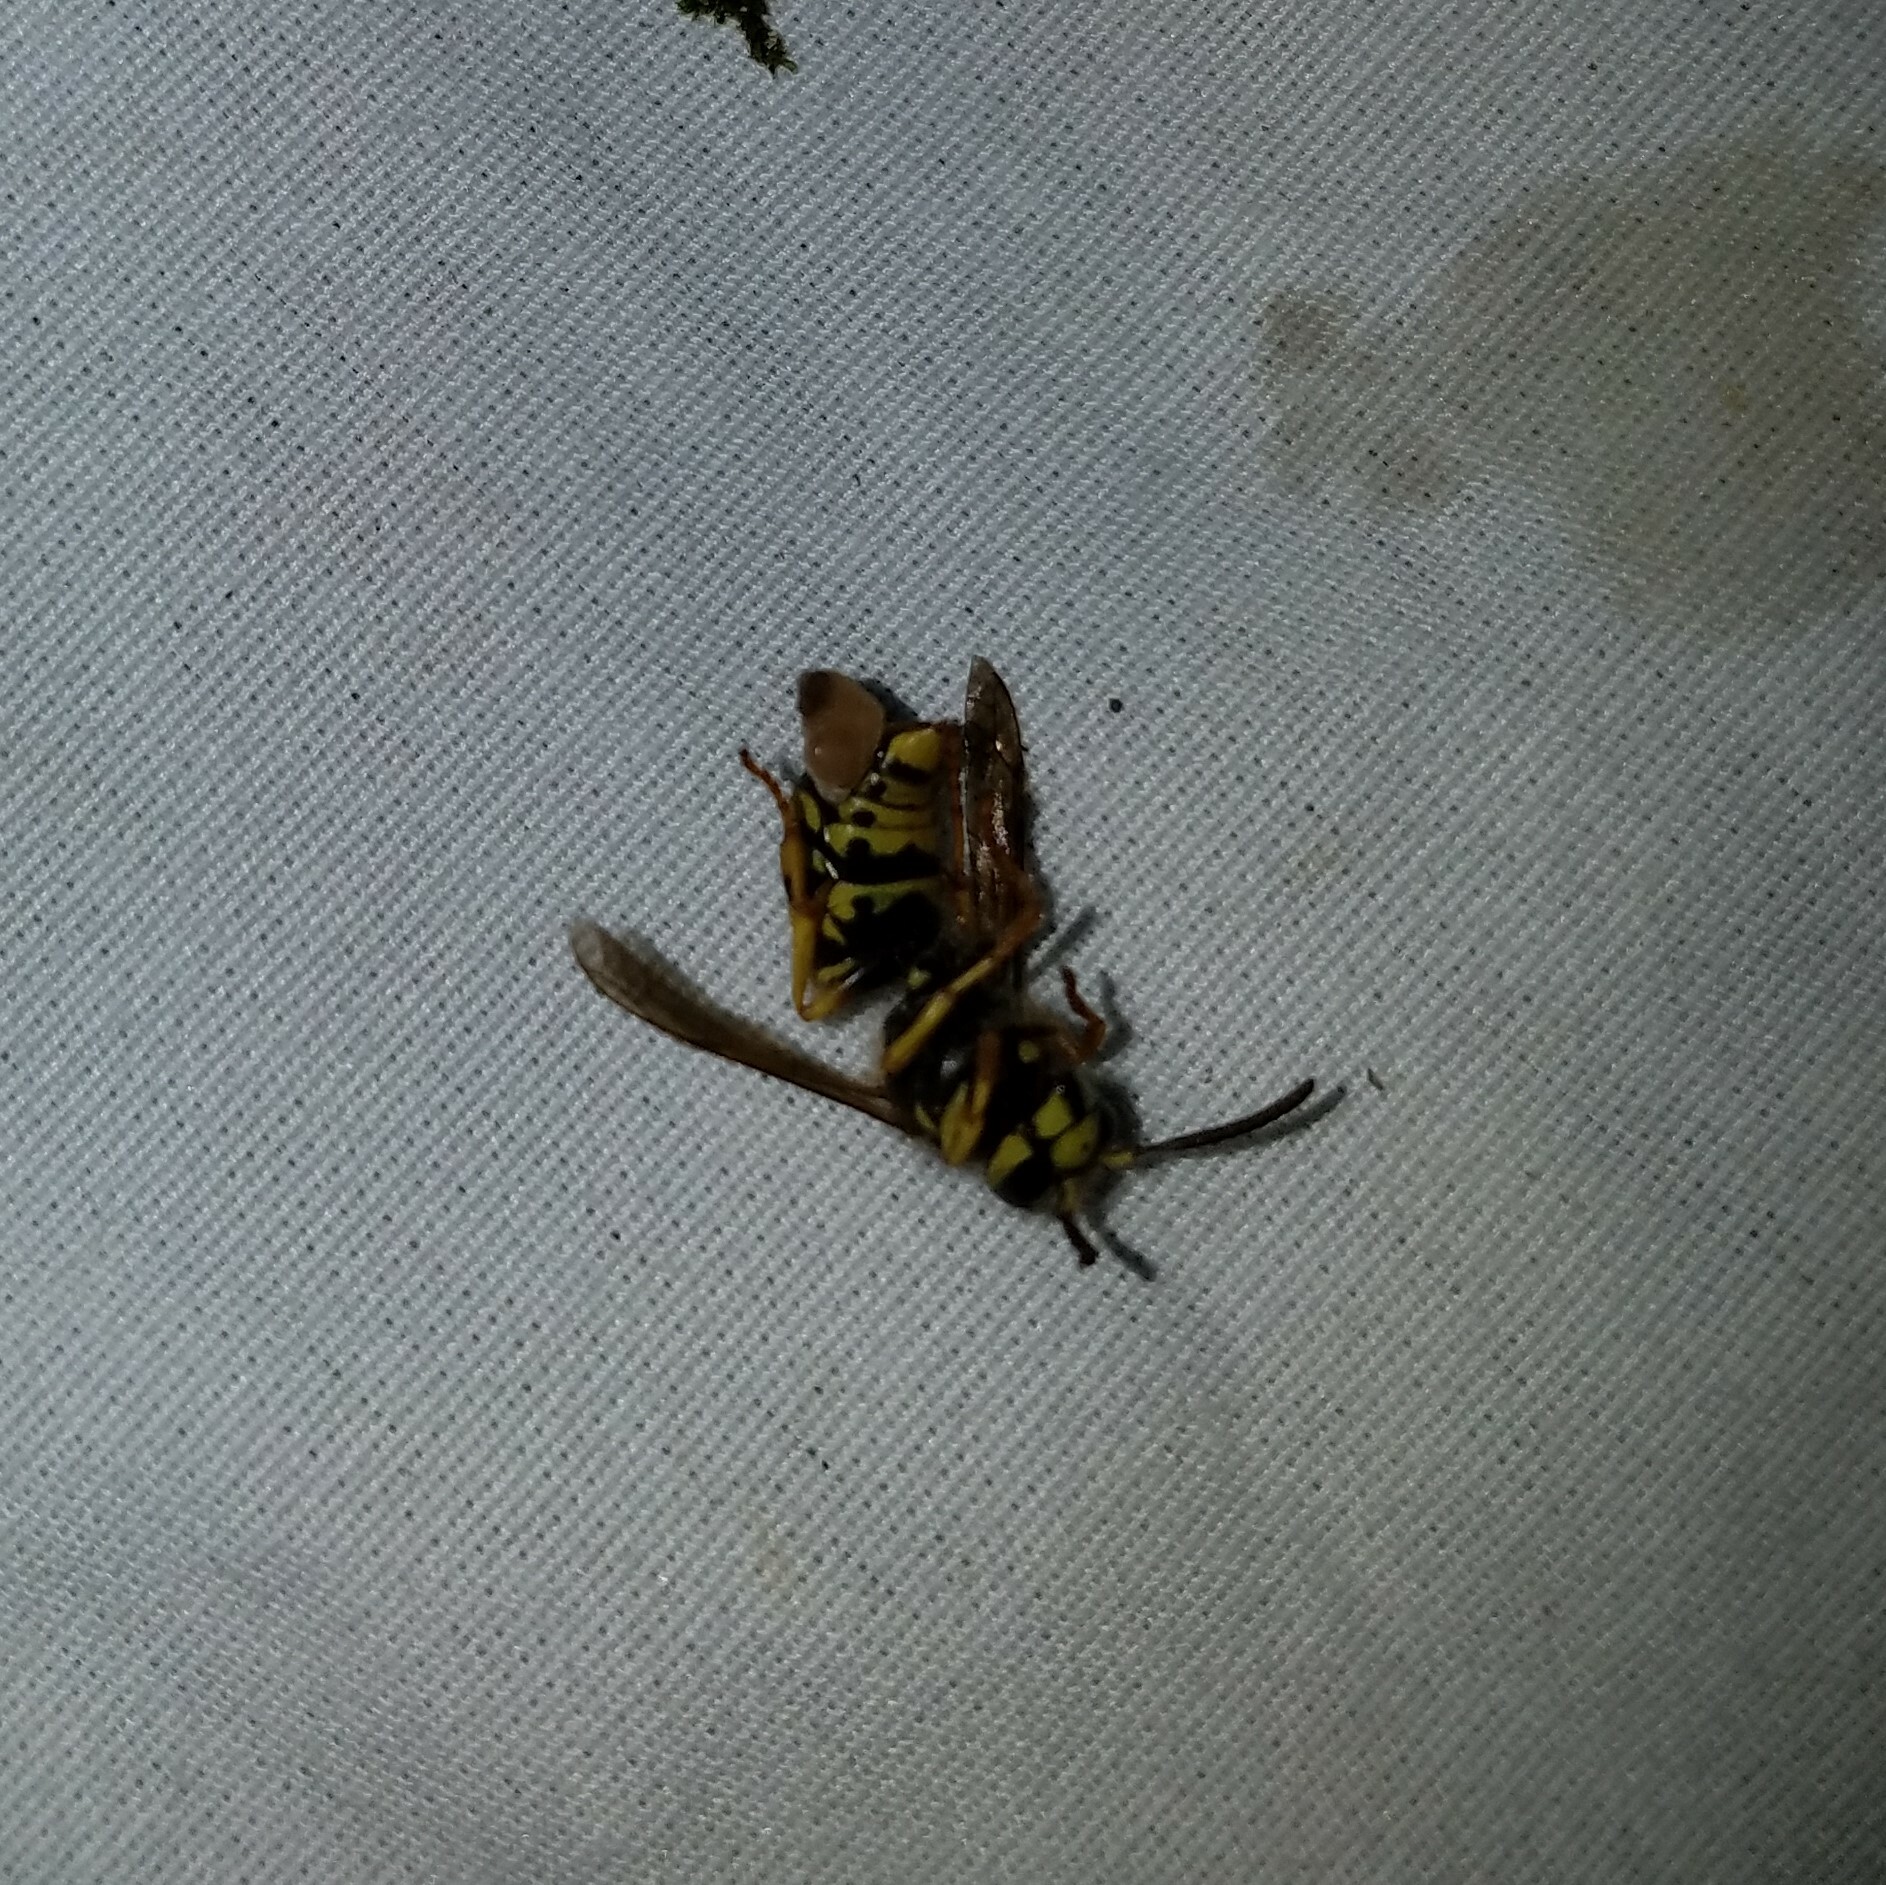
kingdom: Animalia
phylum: Arthropoda
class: Insecta
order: Hymenoptera
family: Vespidae
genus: Dolichovespula
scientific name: Dolichovespula arenaria
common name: Aerial yellowjacket
